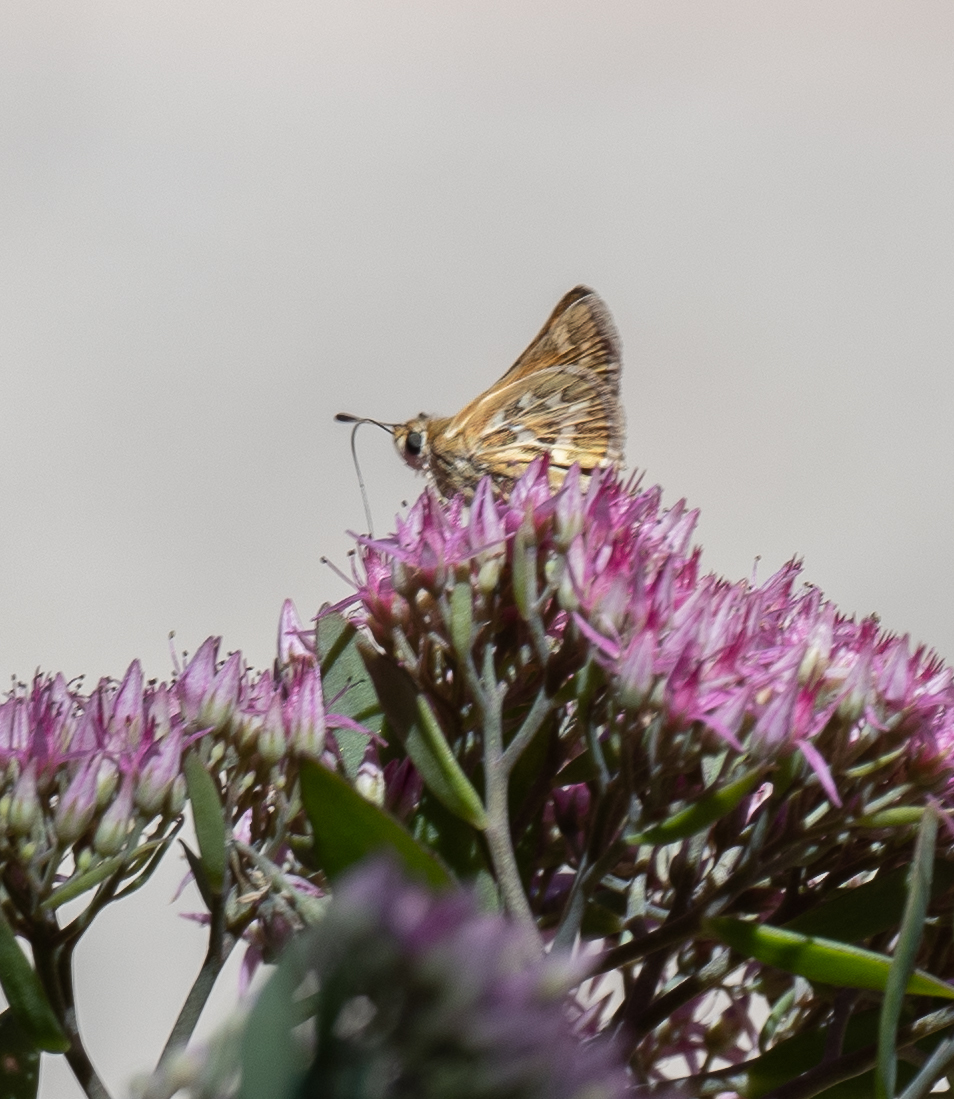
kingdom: Animalia
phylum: Arthropoda
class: Insecta
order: Lepidoptera
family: Hesperiidae
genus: Polites
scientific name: Polites sabuleti
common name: Sandhill skipper
